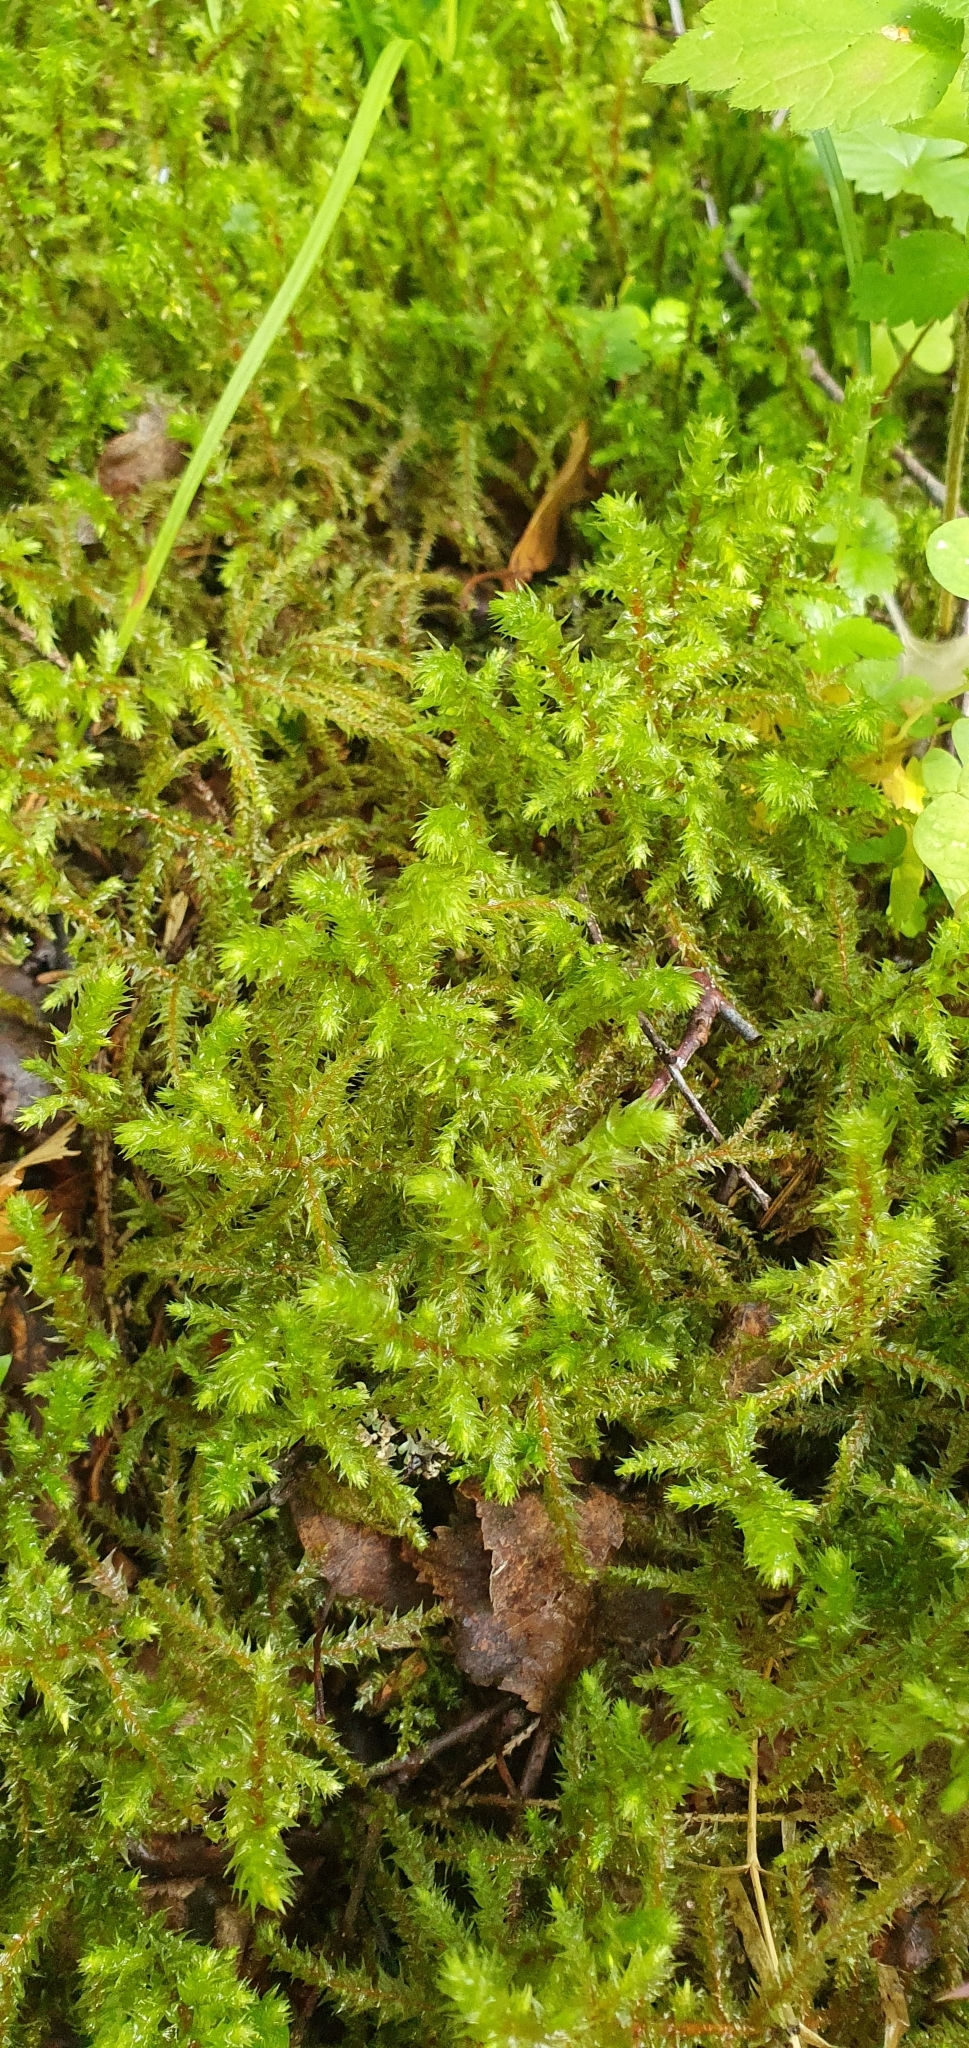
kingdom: Plantae
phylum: Bryophyta
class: Bryopsida
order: Hypnales
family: Hylocomiaceae
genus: Hylocomiadelphus
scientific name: Hylocomiadelphus triquetrus
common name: Rough goose neck moss
